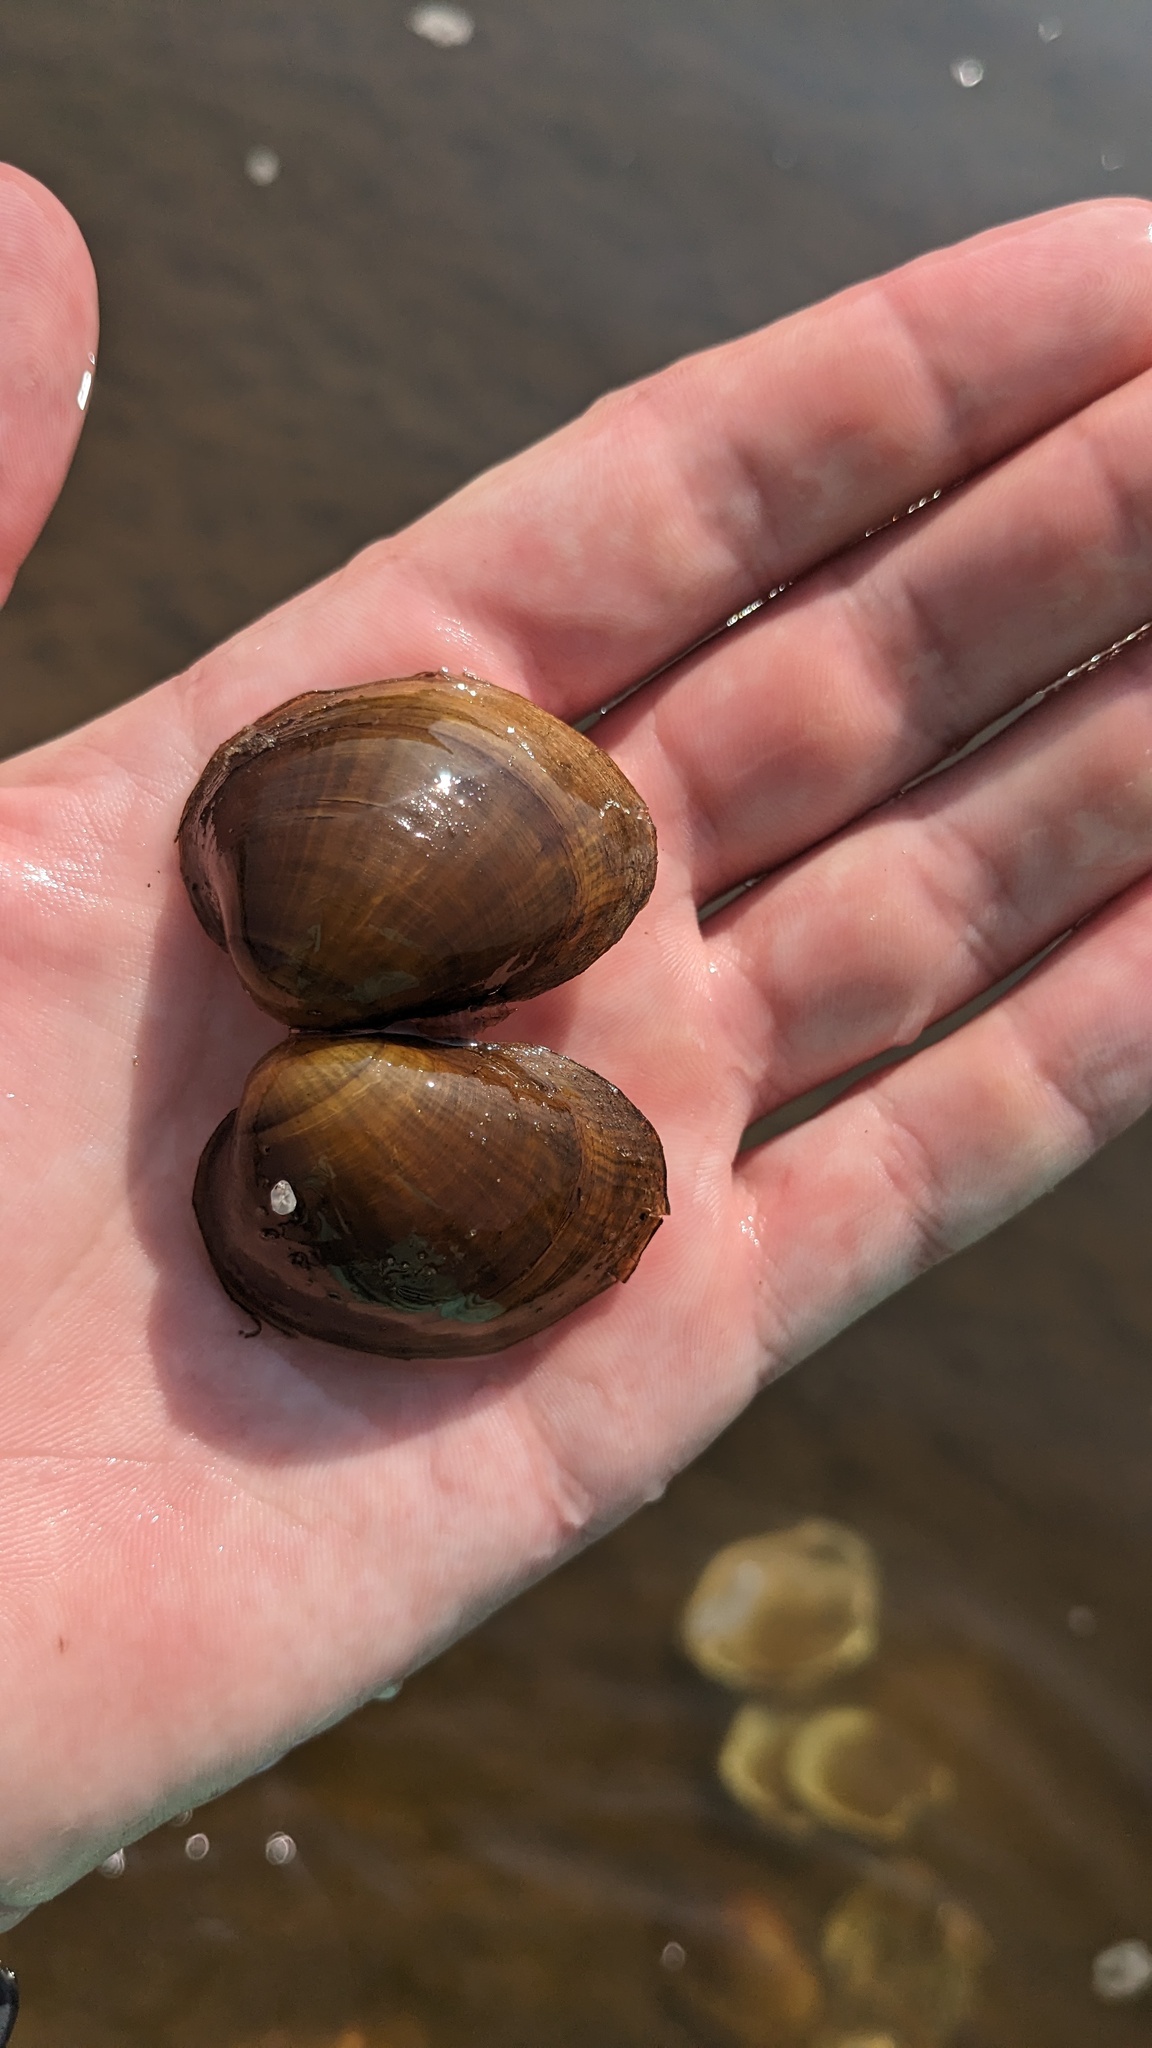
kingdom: Animalia
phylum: Mollusca
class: Bivalvia
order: Unionida
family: Unionidae
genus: Obovaria
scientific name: Obovaria olivaria
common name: Hickorynut
